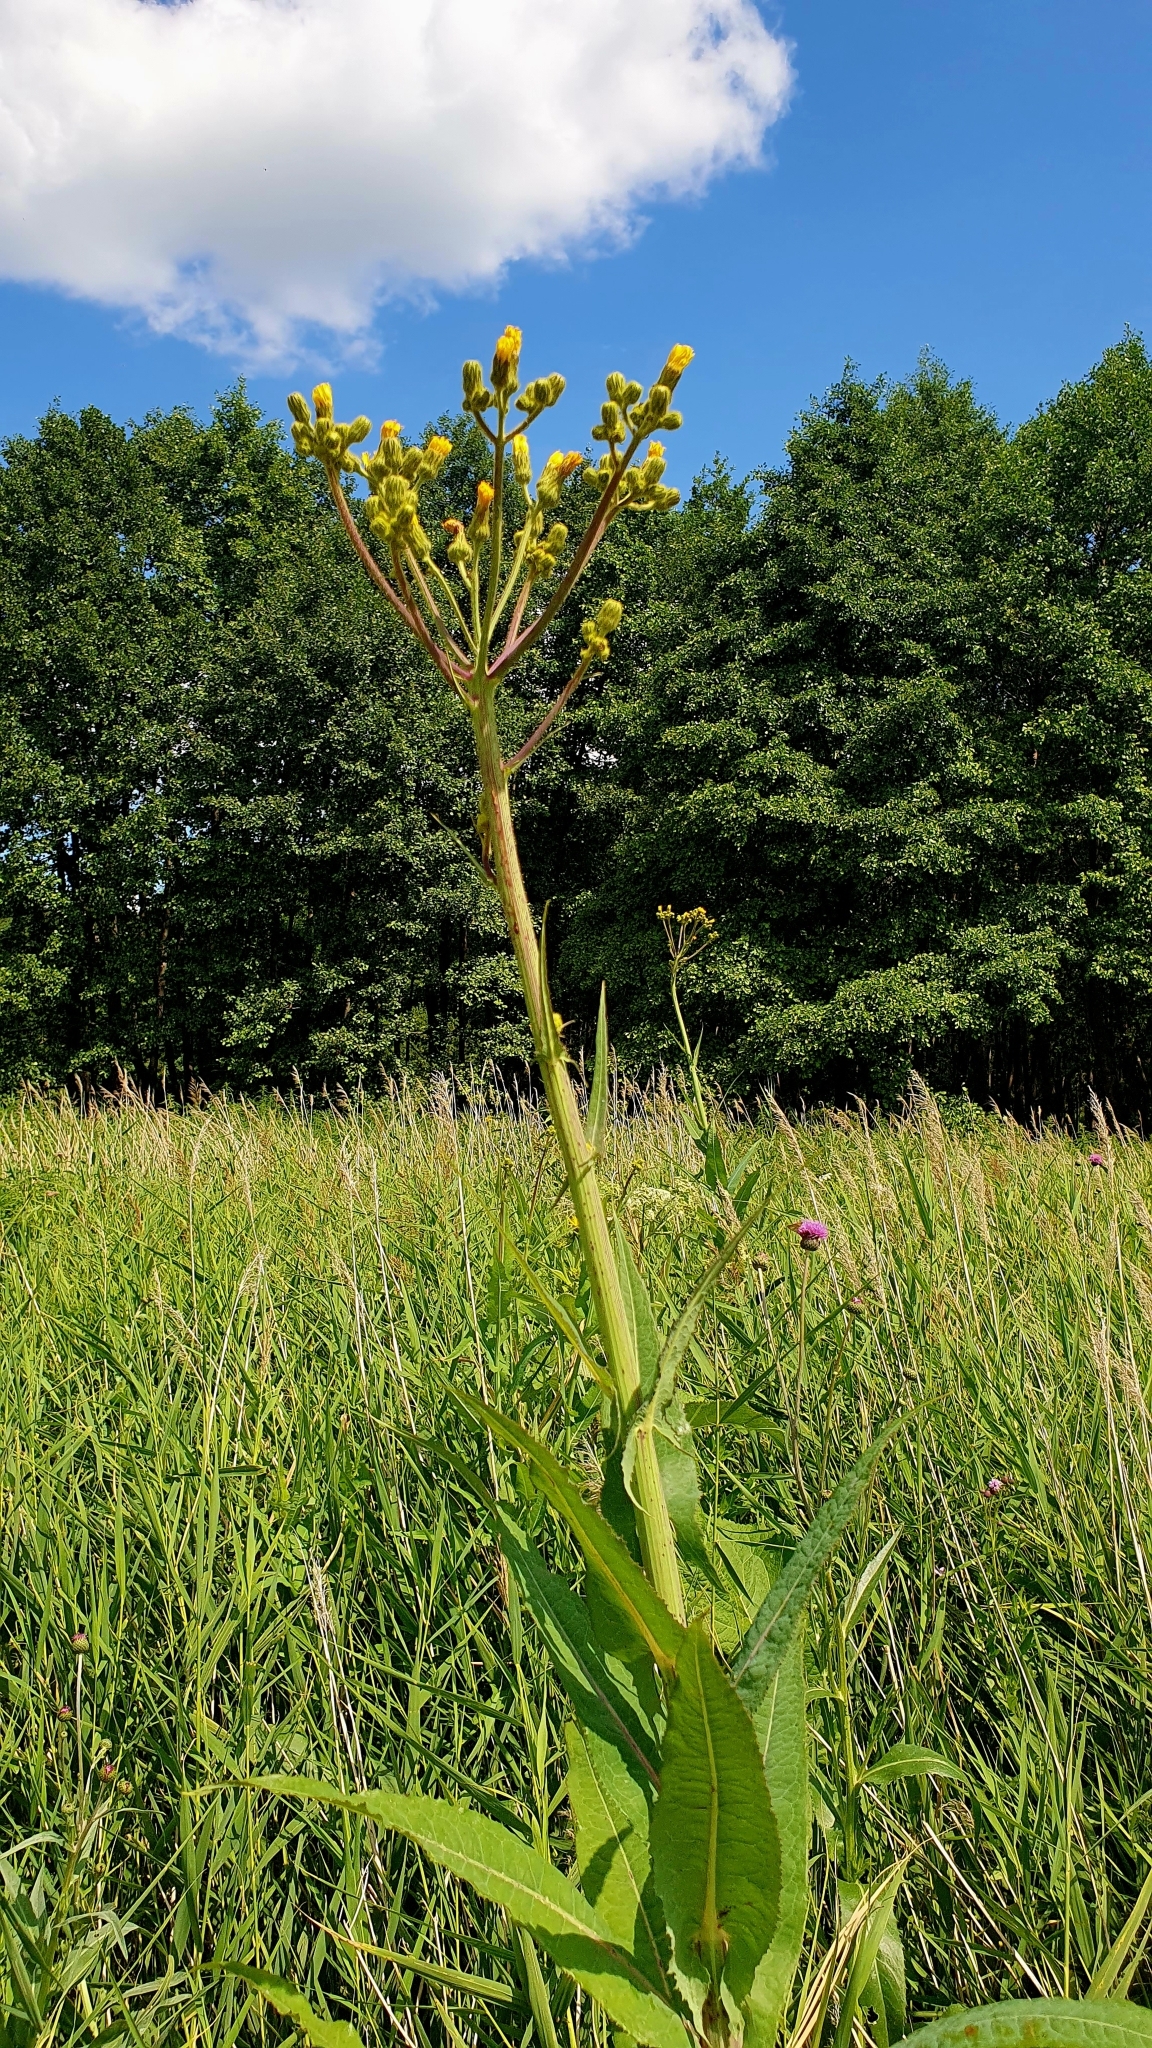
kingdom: Plantae
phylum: Tracheophyta
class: Magnoliopsida
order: Asterales
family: Asteraceae
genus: Sonchus
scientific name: Sonchus palustris
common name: Marsh sow-thistle
